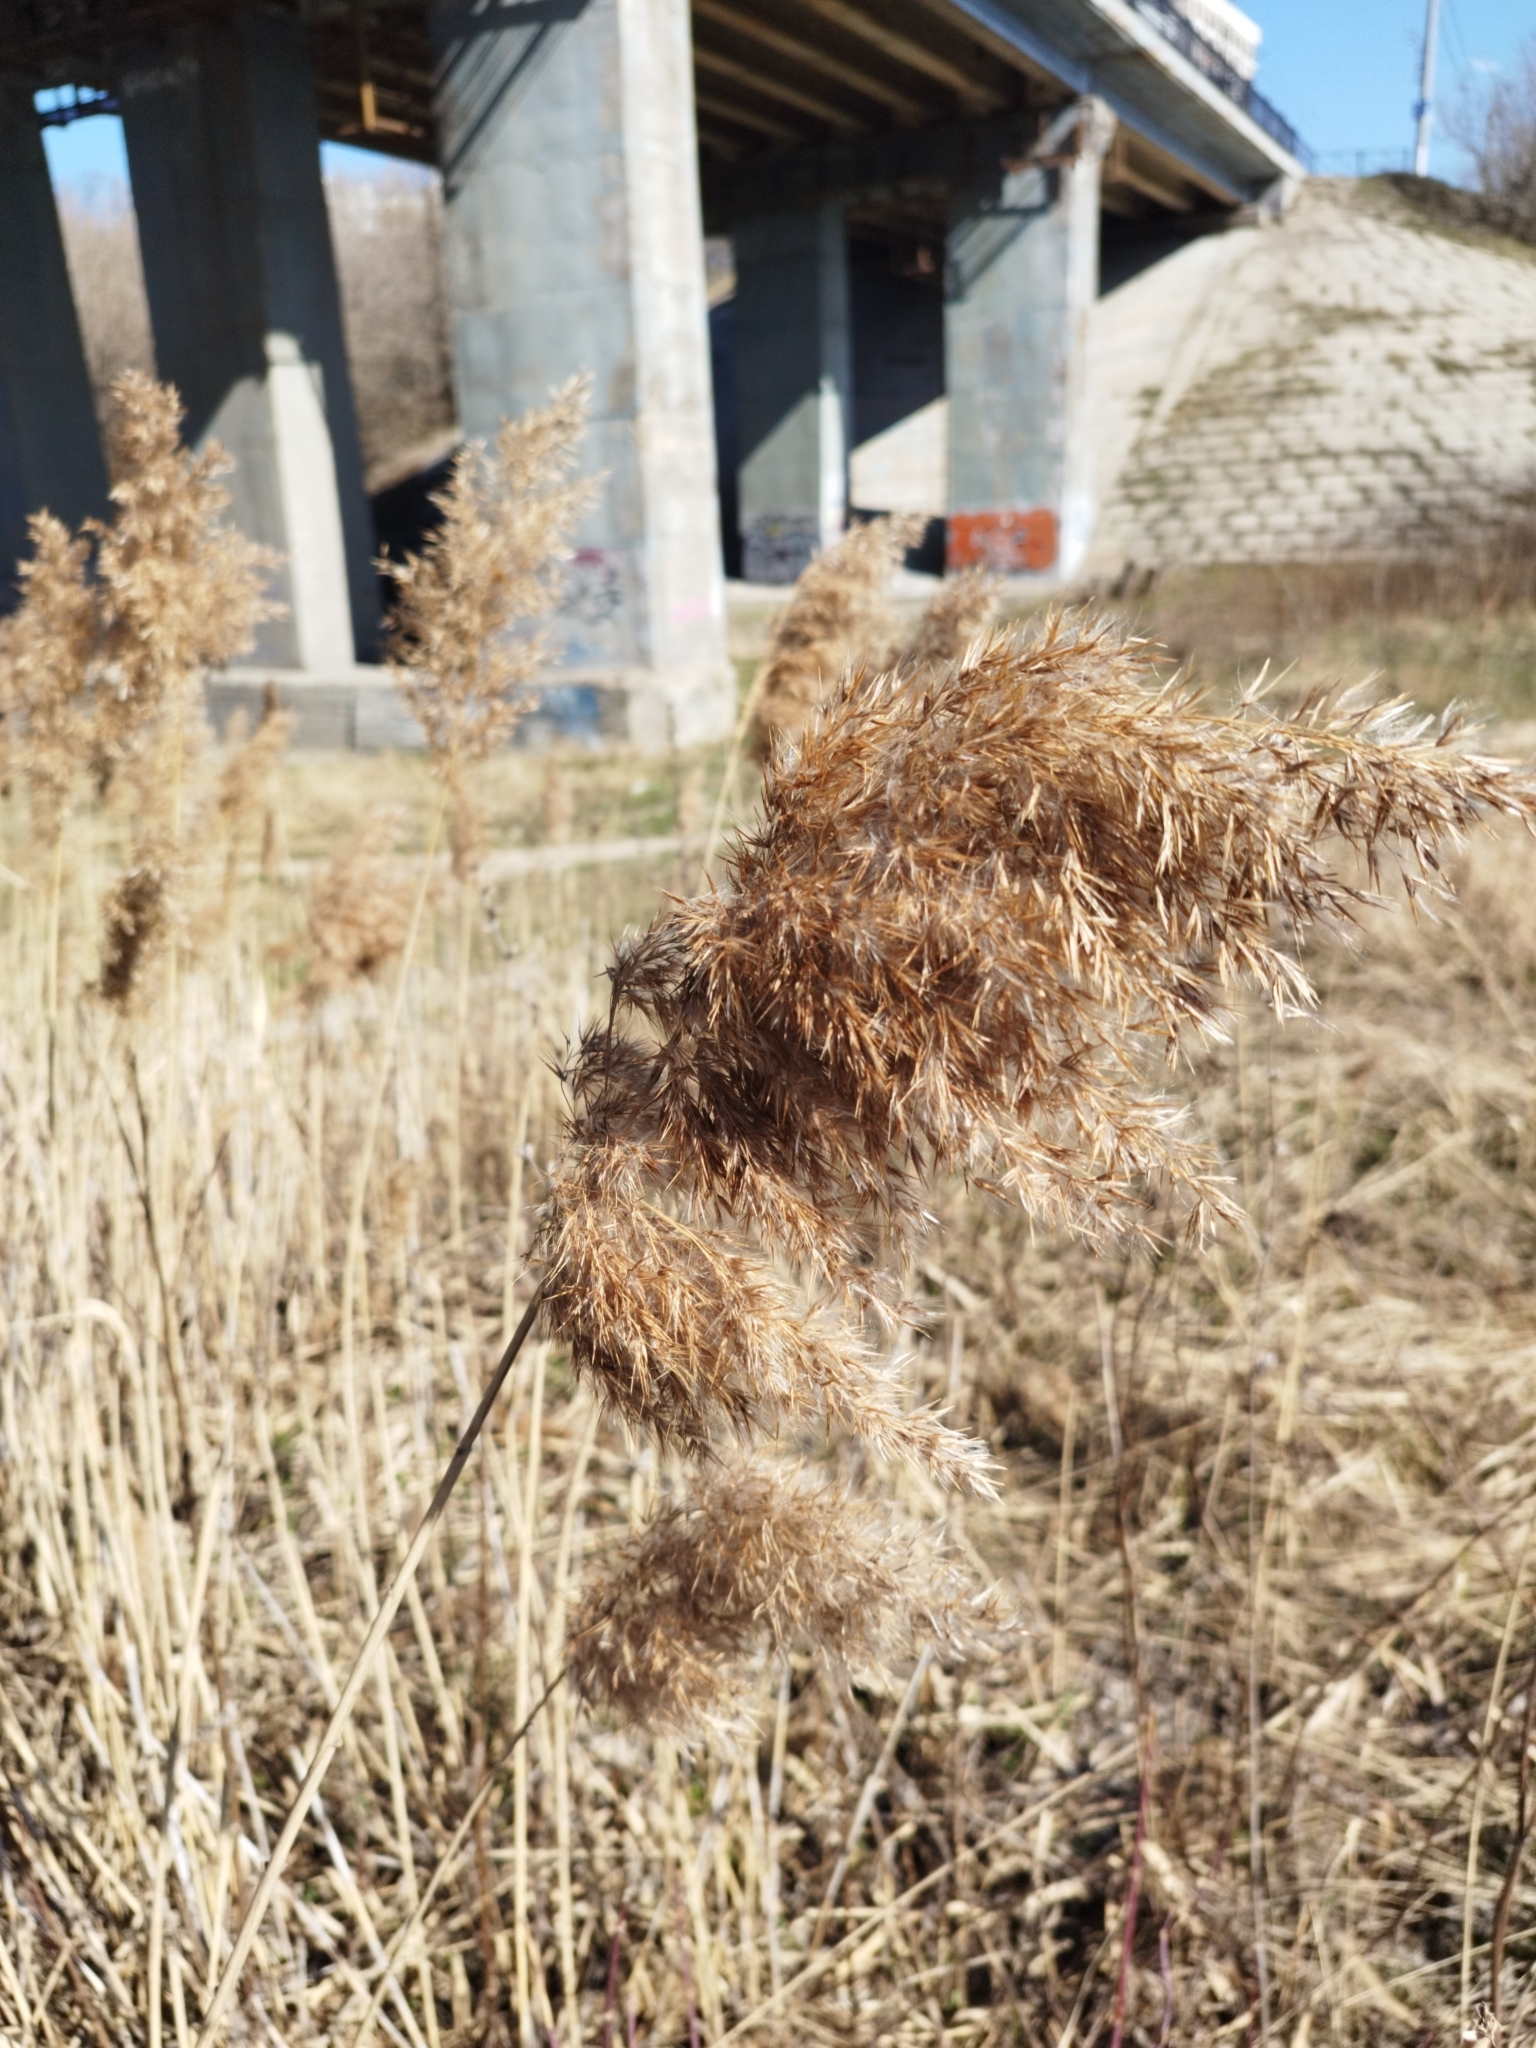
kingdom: Plantae
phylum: Tracheophyta
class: Liliopsida
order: Poales
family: Poaceae
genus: Phragmites
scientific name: Phragmites australis
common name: Common reed
